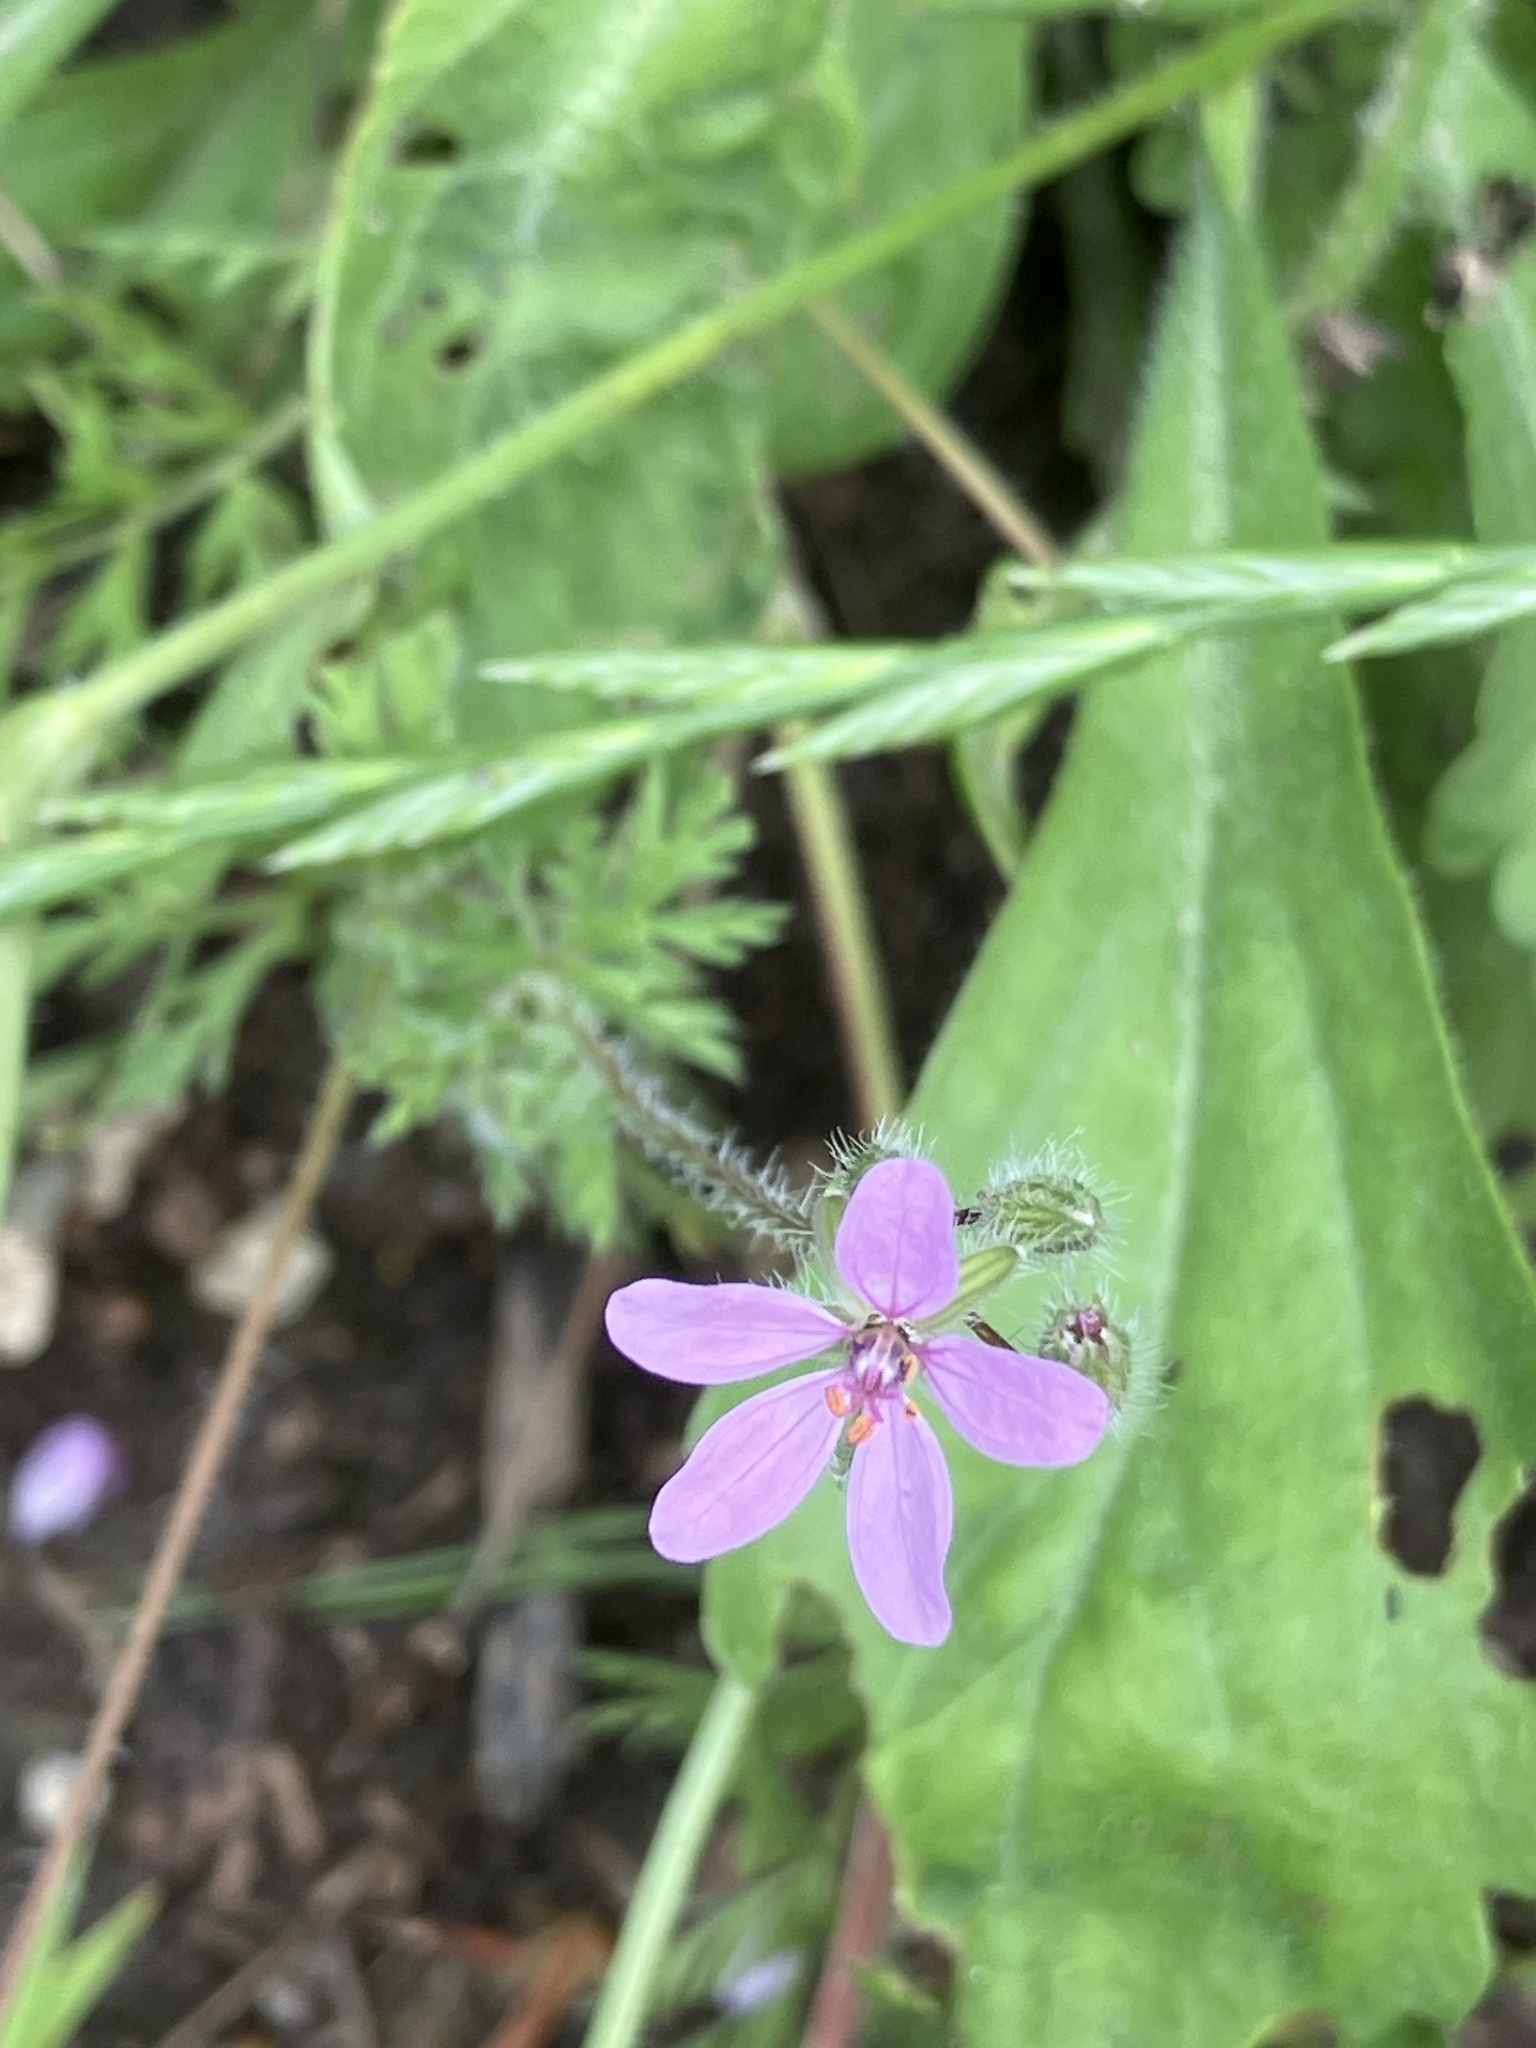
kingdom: Plantae
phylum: Tracheophyta
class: Magnoliopsida
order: Geraniales
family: Geraniaceae
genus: Erodium
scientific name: Erodium cicutarium
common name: Common stork's-bill
